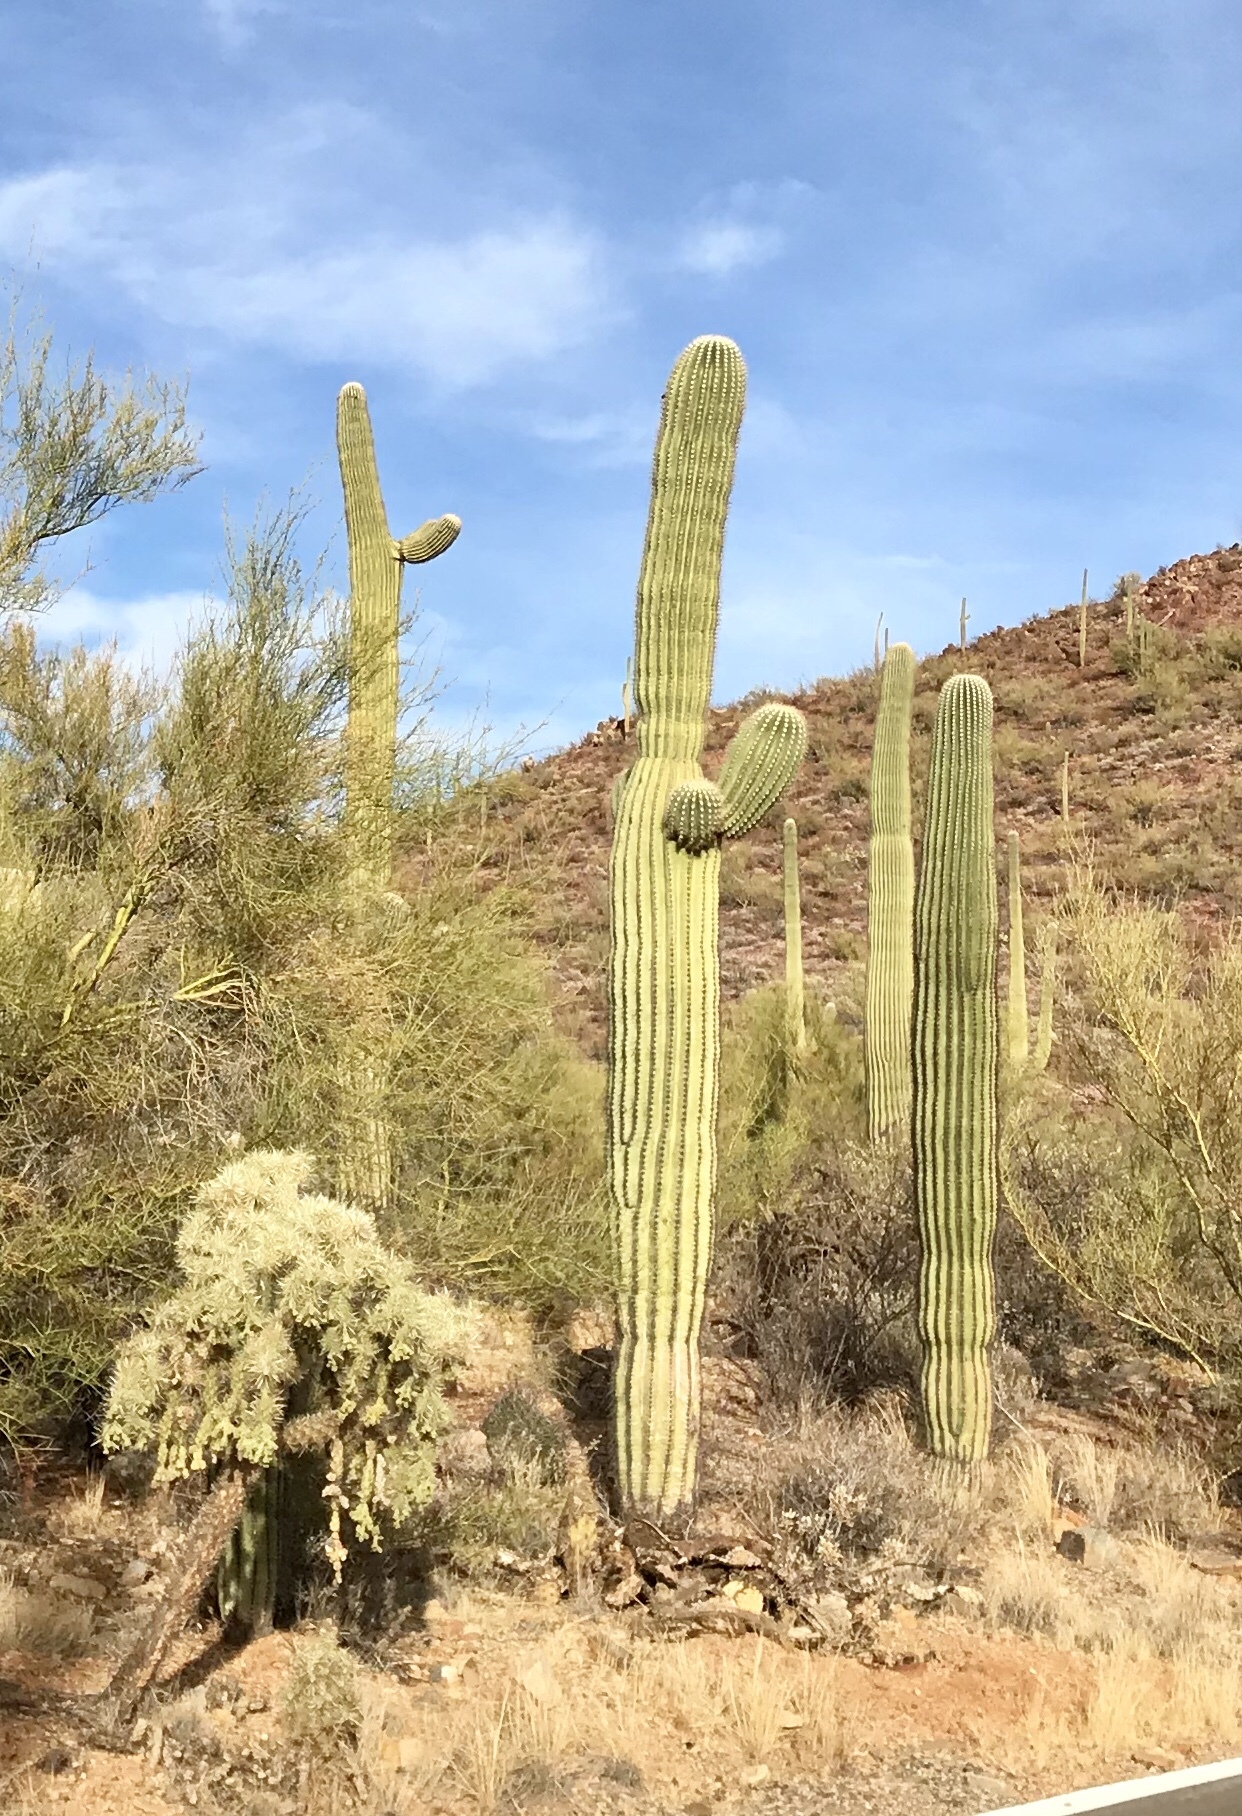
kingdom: Plantae
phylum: Tracheophyta
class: Magnoliopsida
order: Caryophyllales
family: Cactaceae
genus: Carnegiea
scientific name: Carnegiea gigantea
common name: Saguaro
